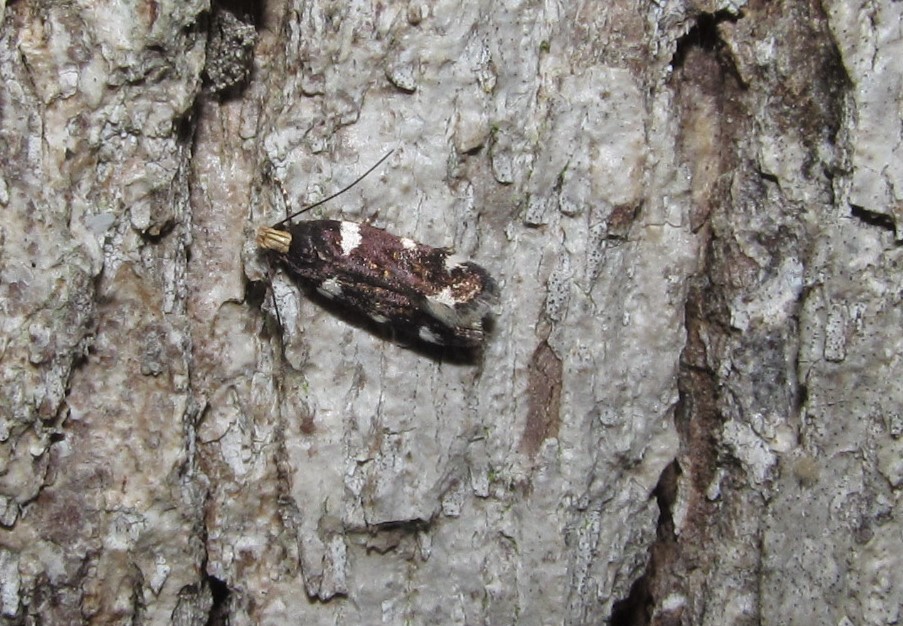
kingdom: Animalia
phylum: Arthropoda
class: Insecta
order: Lepidoptera
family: Gelechiidae
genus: Fascista
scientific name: Fascista cercerisella
